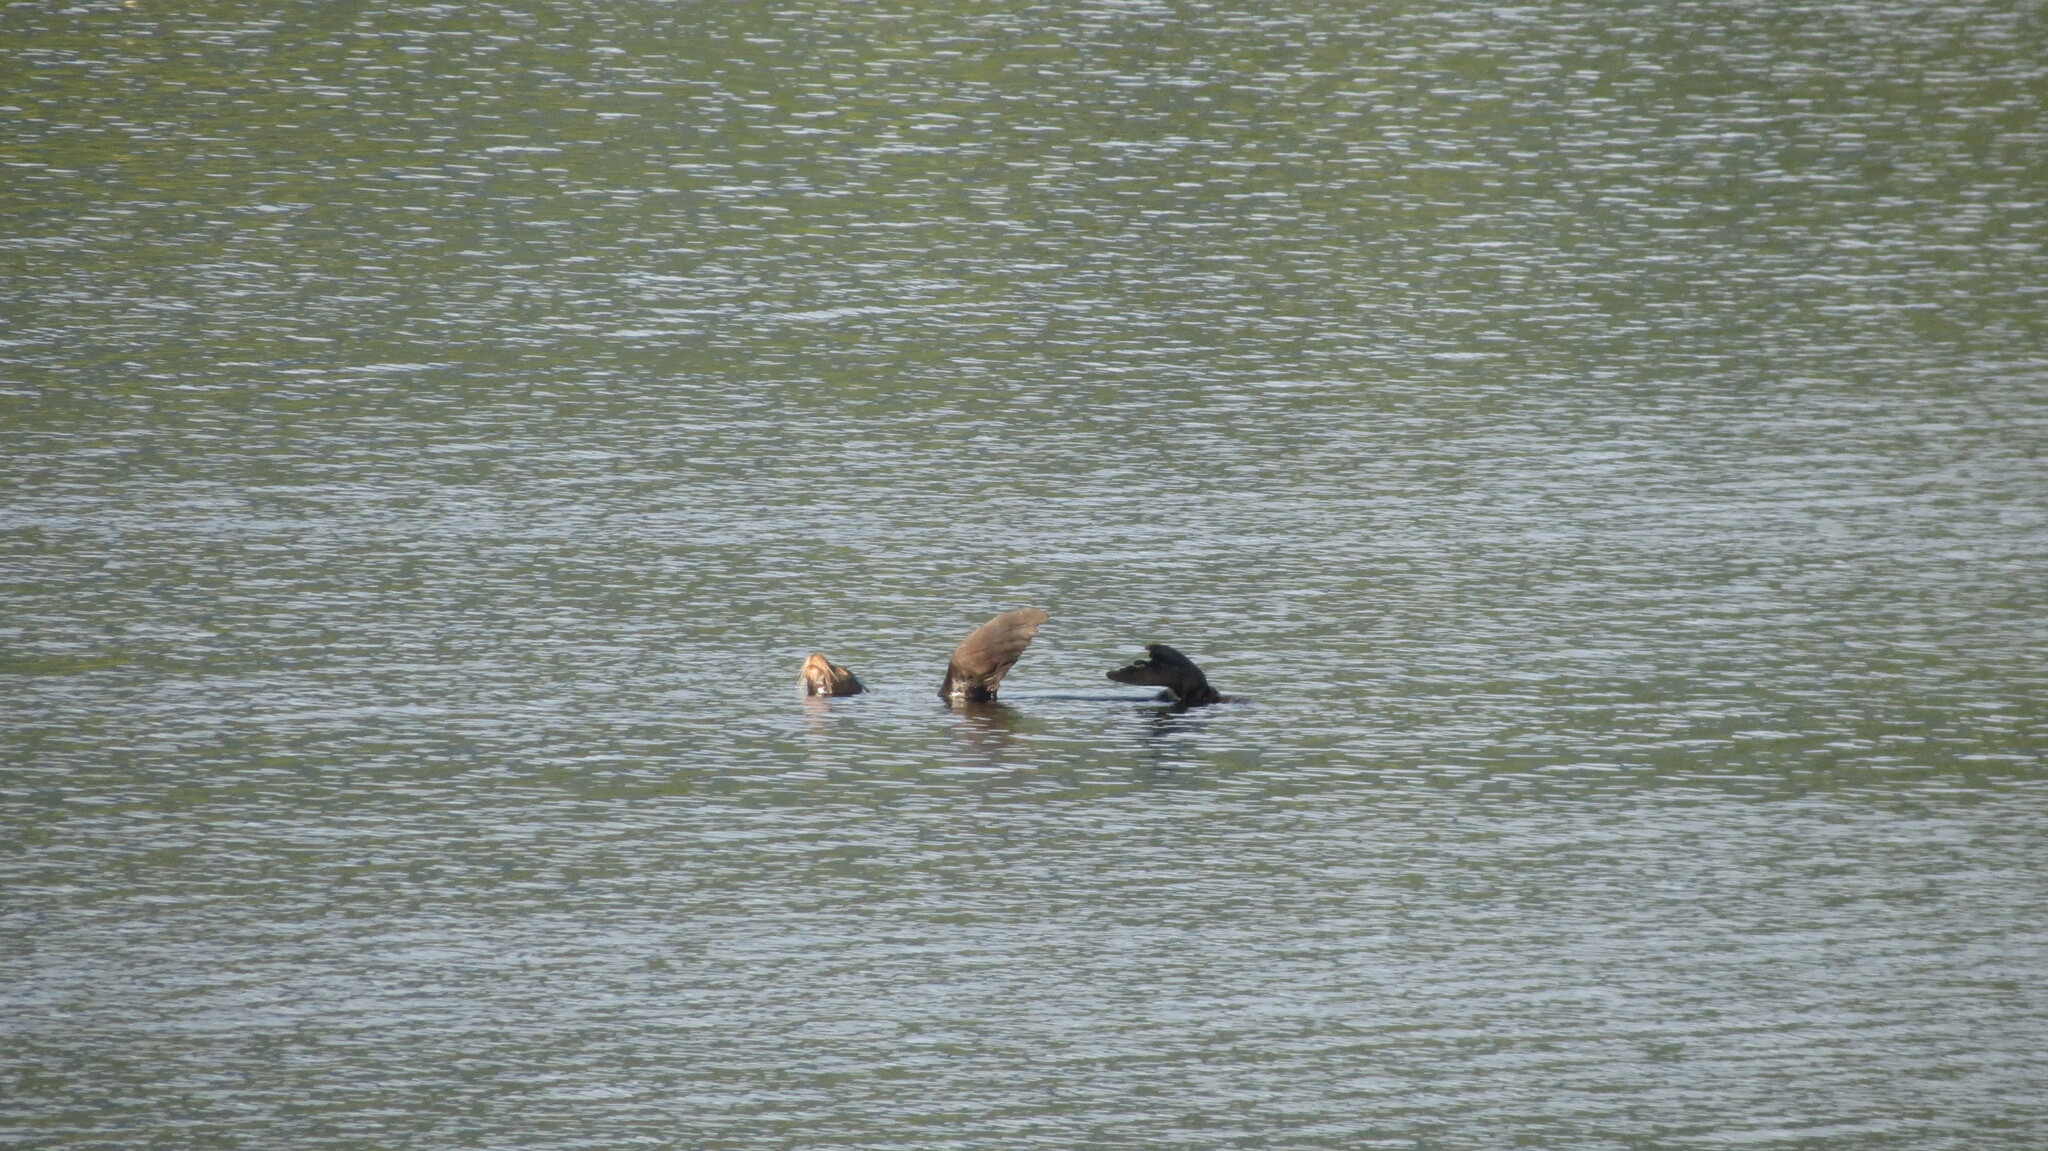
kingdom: Animalia
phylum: Chordata
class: Mammalia
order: Carnivora
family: Otariidae
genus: Zalophus
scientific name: Zalophus californianus
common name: California sea lion
